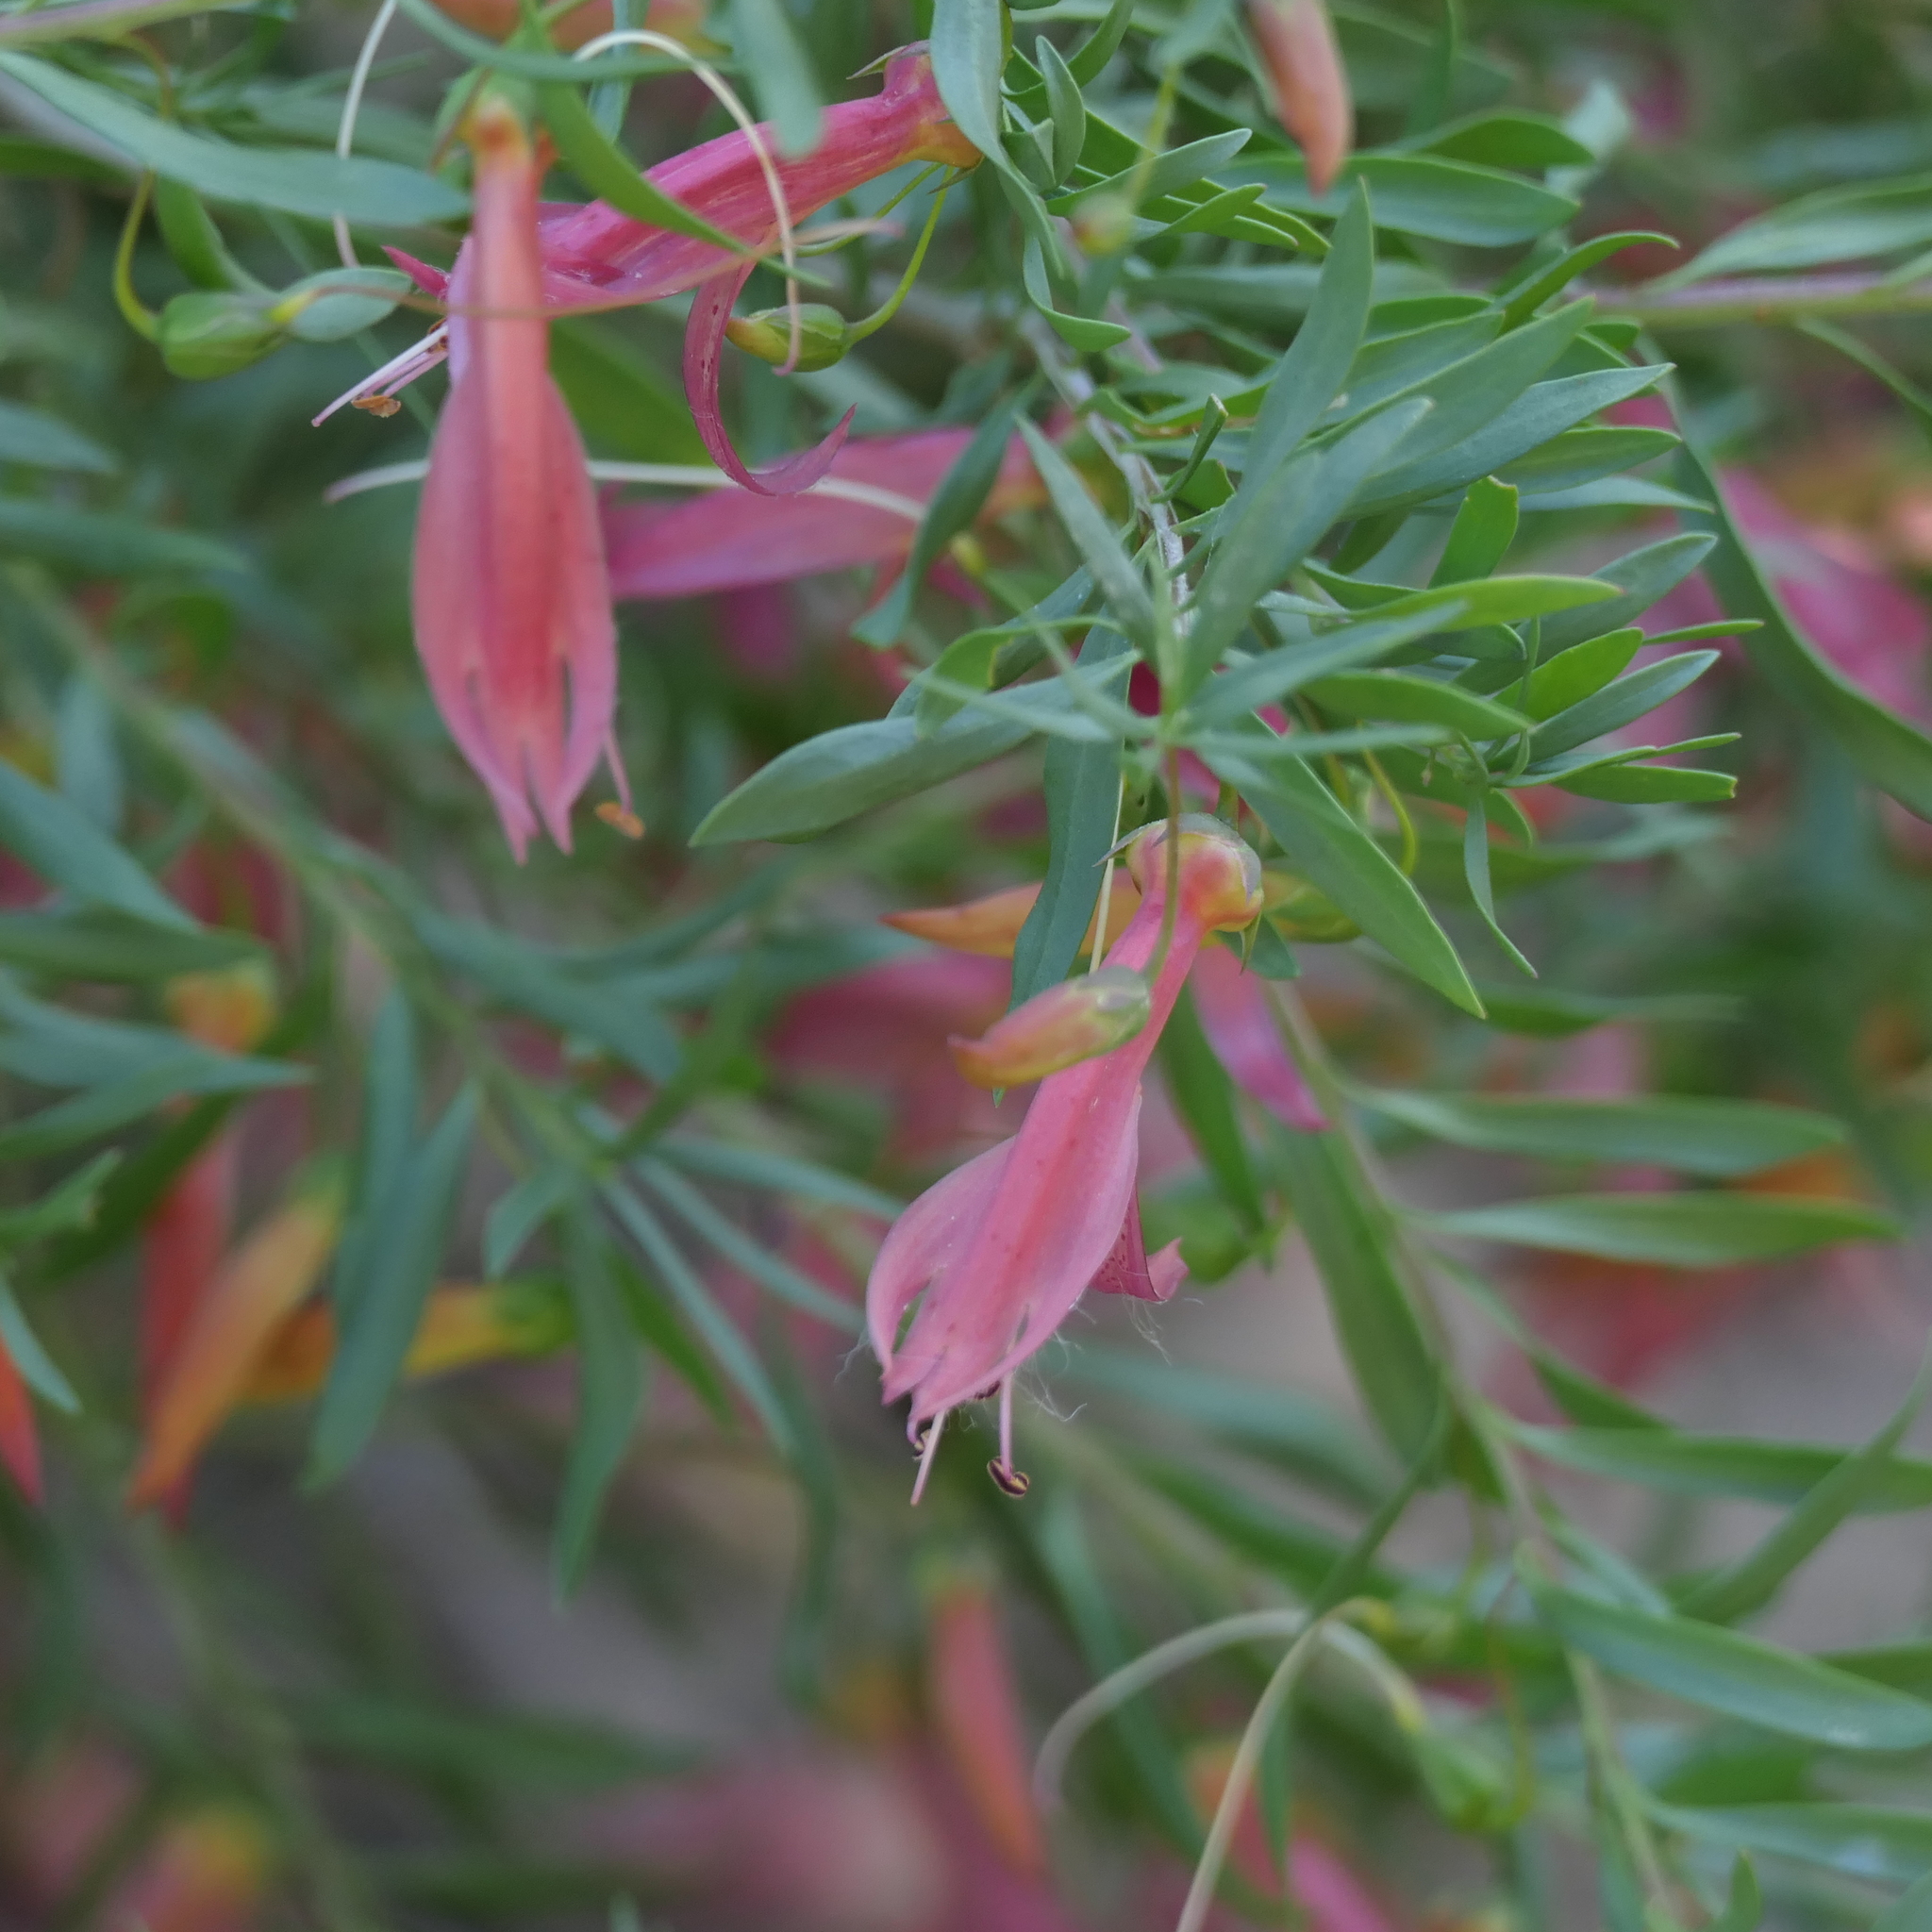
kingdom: Plantae
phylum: Tracheophyta
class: Magnoliopsida
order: Lamiales
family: Scrophulariaceae
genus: Eremophila
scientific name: Eremophila maculata
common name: Fuchsiabush
